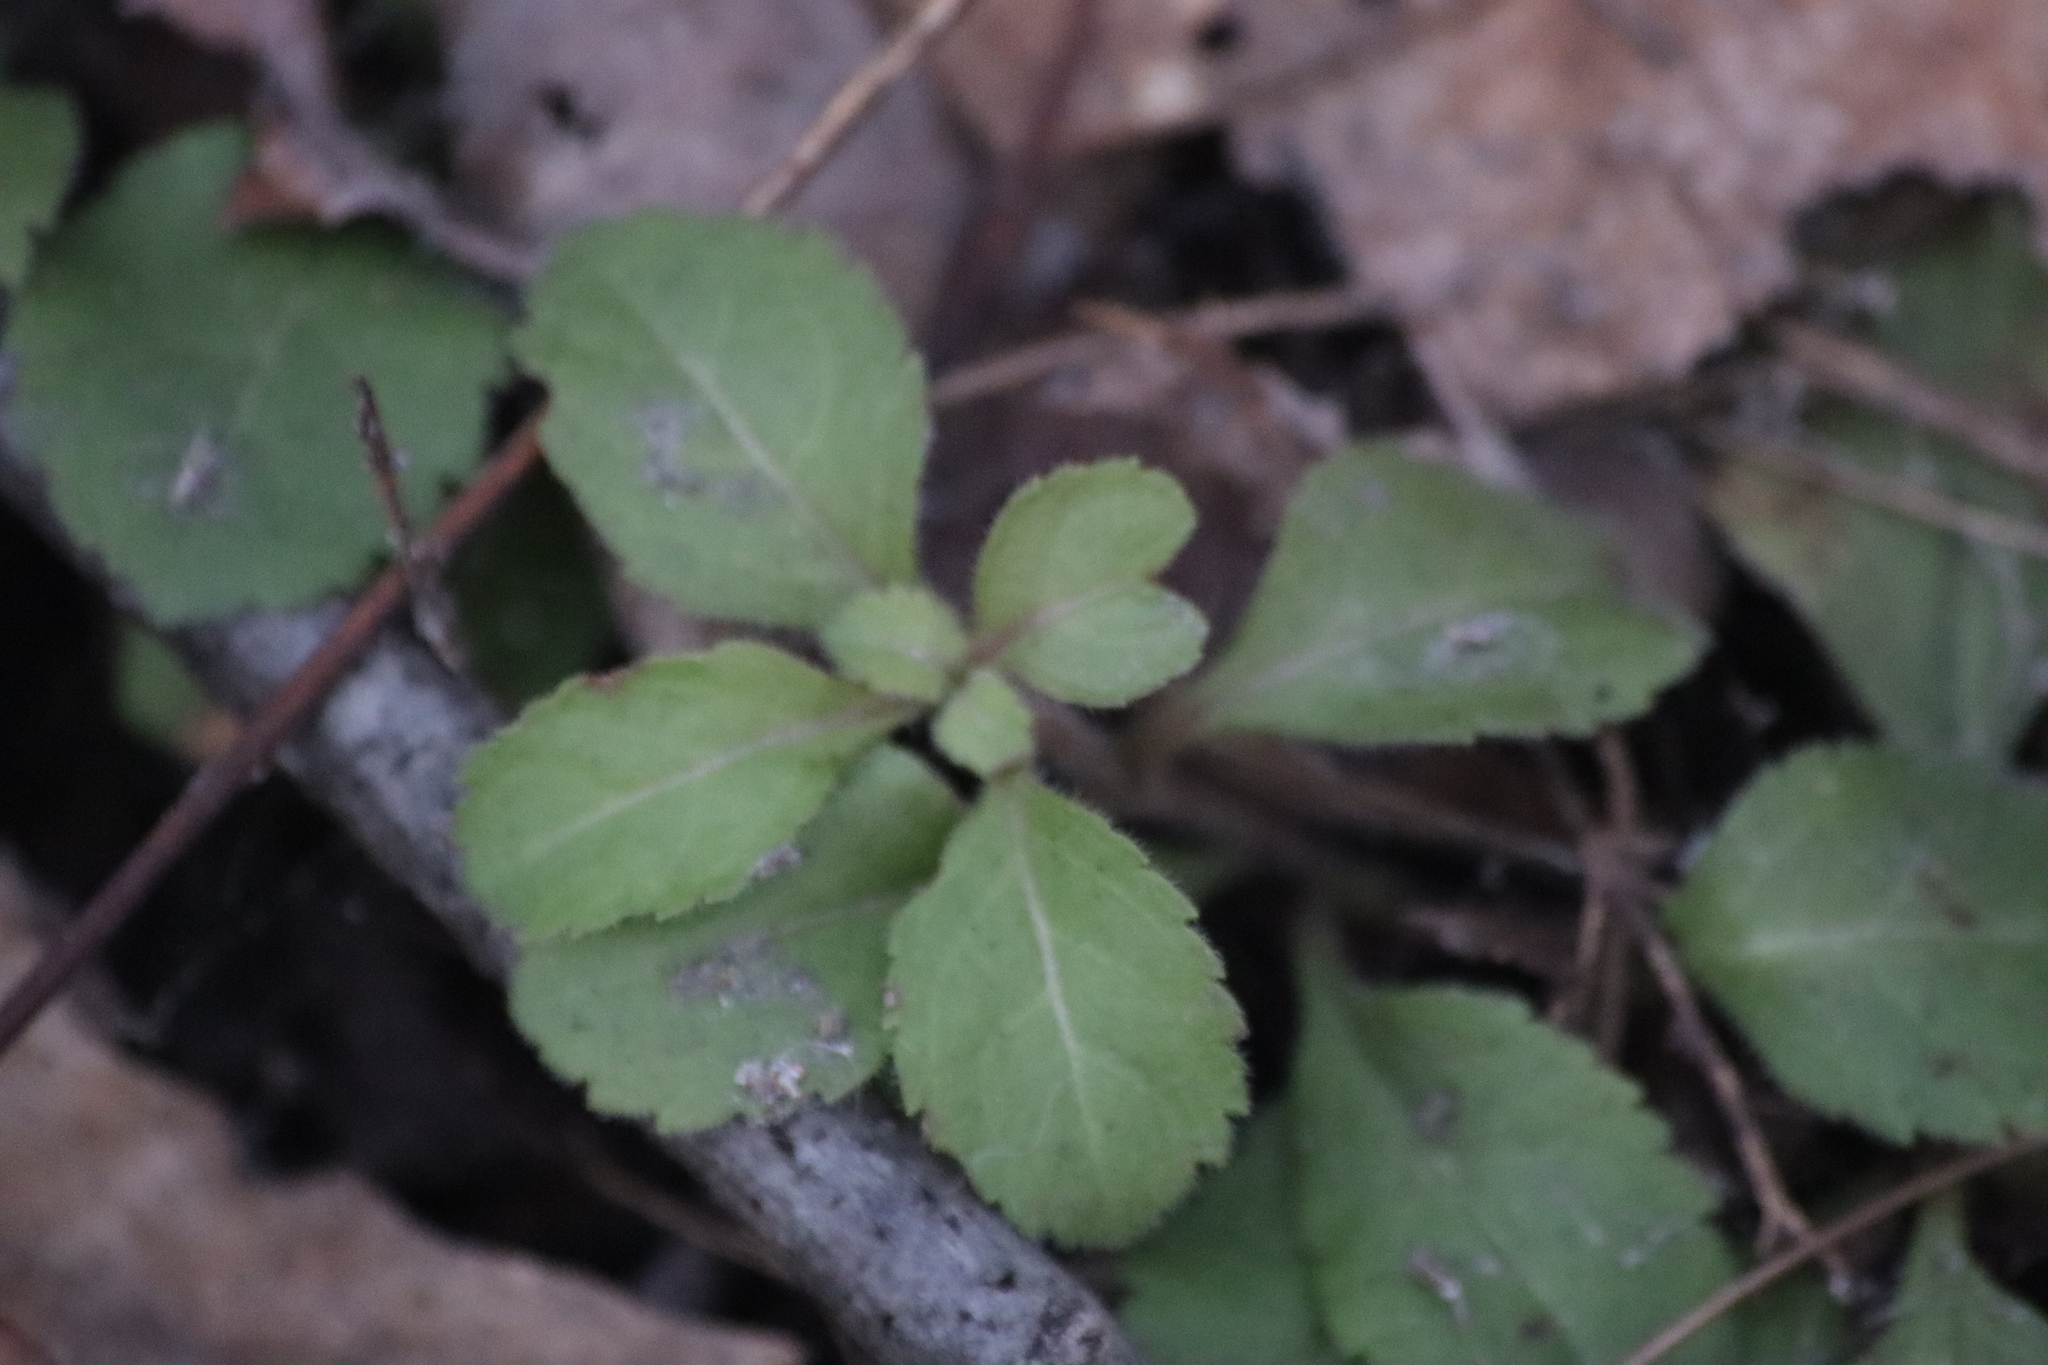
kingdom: Plantae
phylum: Tracheophyta
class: Magnoliopsida
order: Lamiales
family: Plantaginaceae
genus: Veronica
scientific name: Veronica officinalis
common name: Common speedwell
